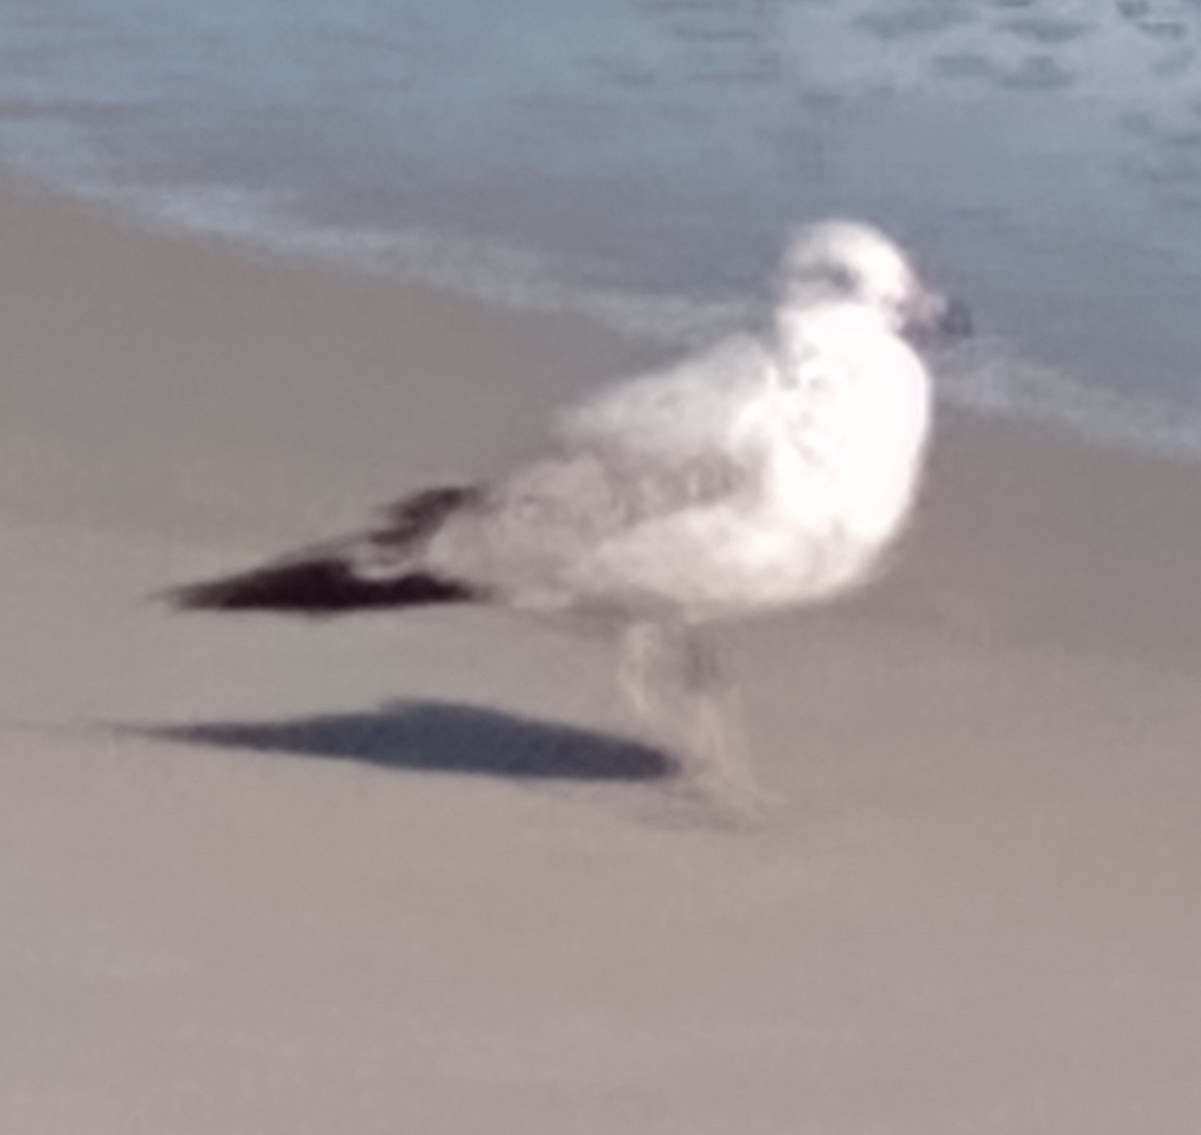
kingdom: Animalia
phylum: Chordata
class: Aves
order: Charadriiformes
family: Laridae
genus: Larus
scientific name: Larus delawarensis
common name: Ring-billed gull
